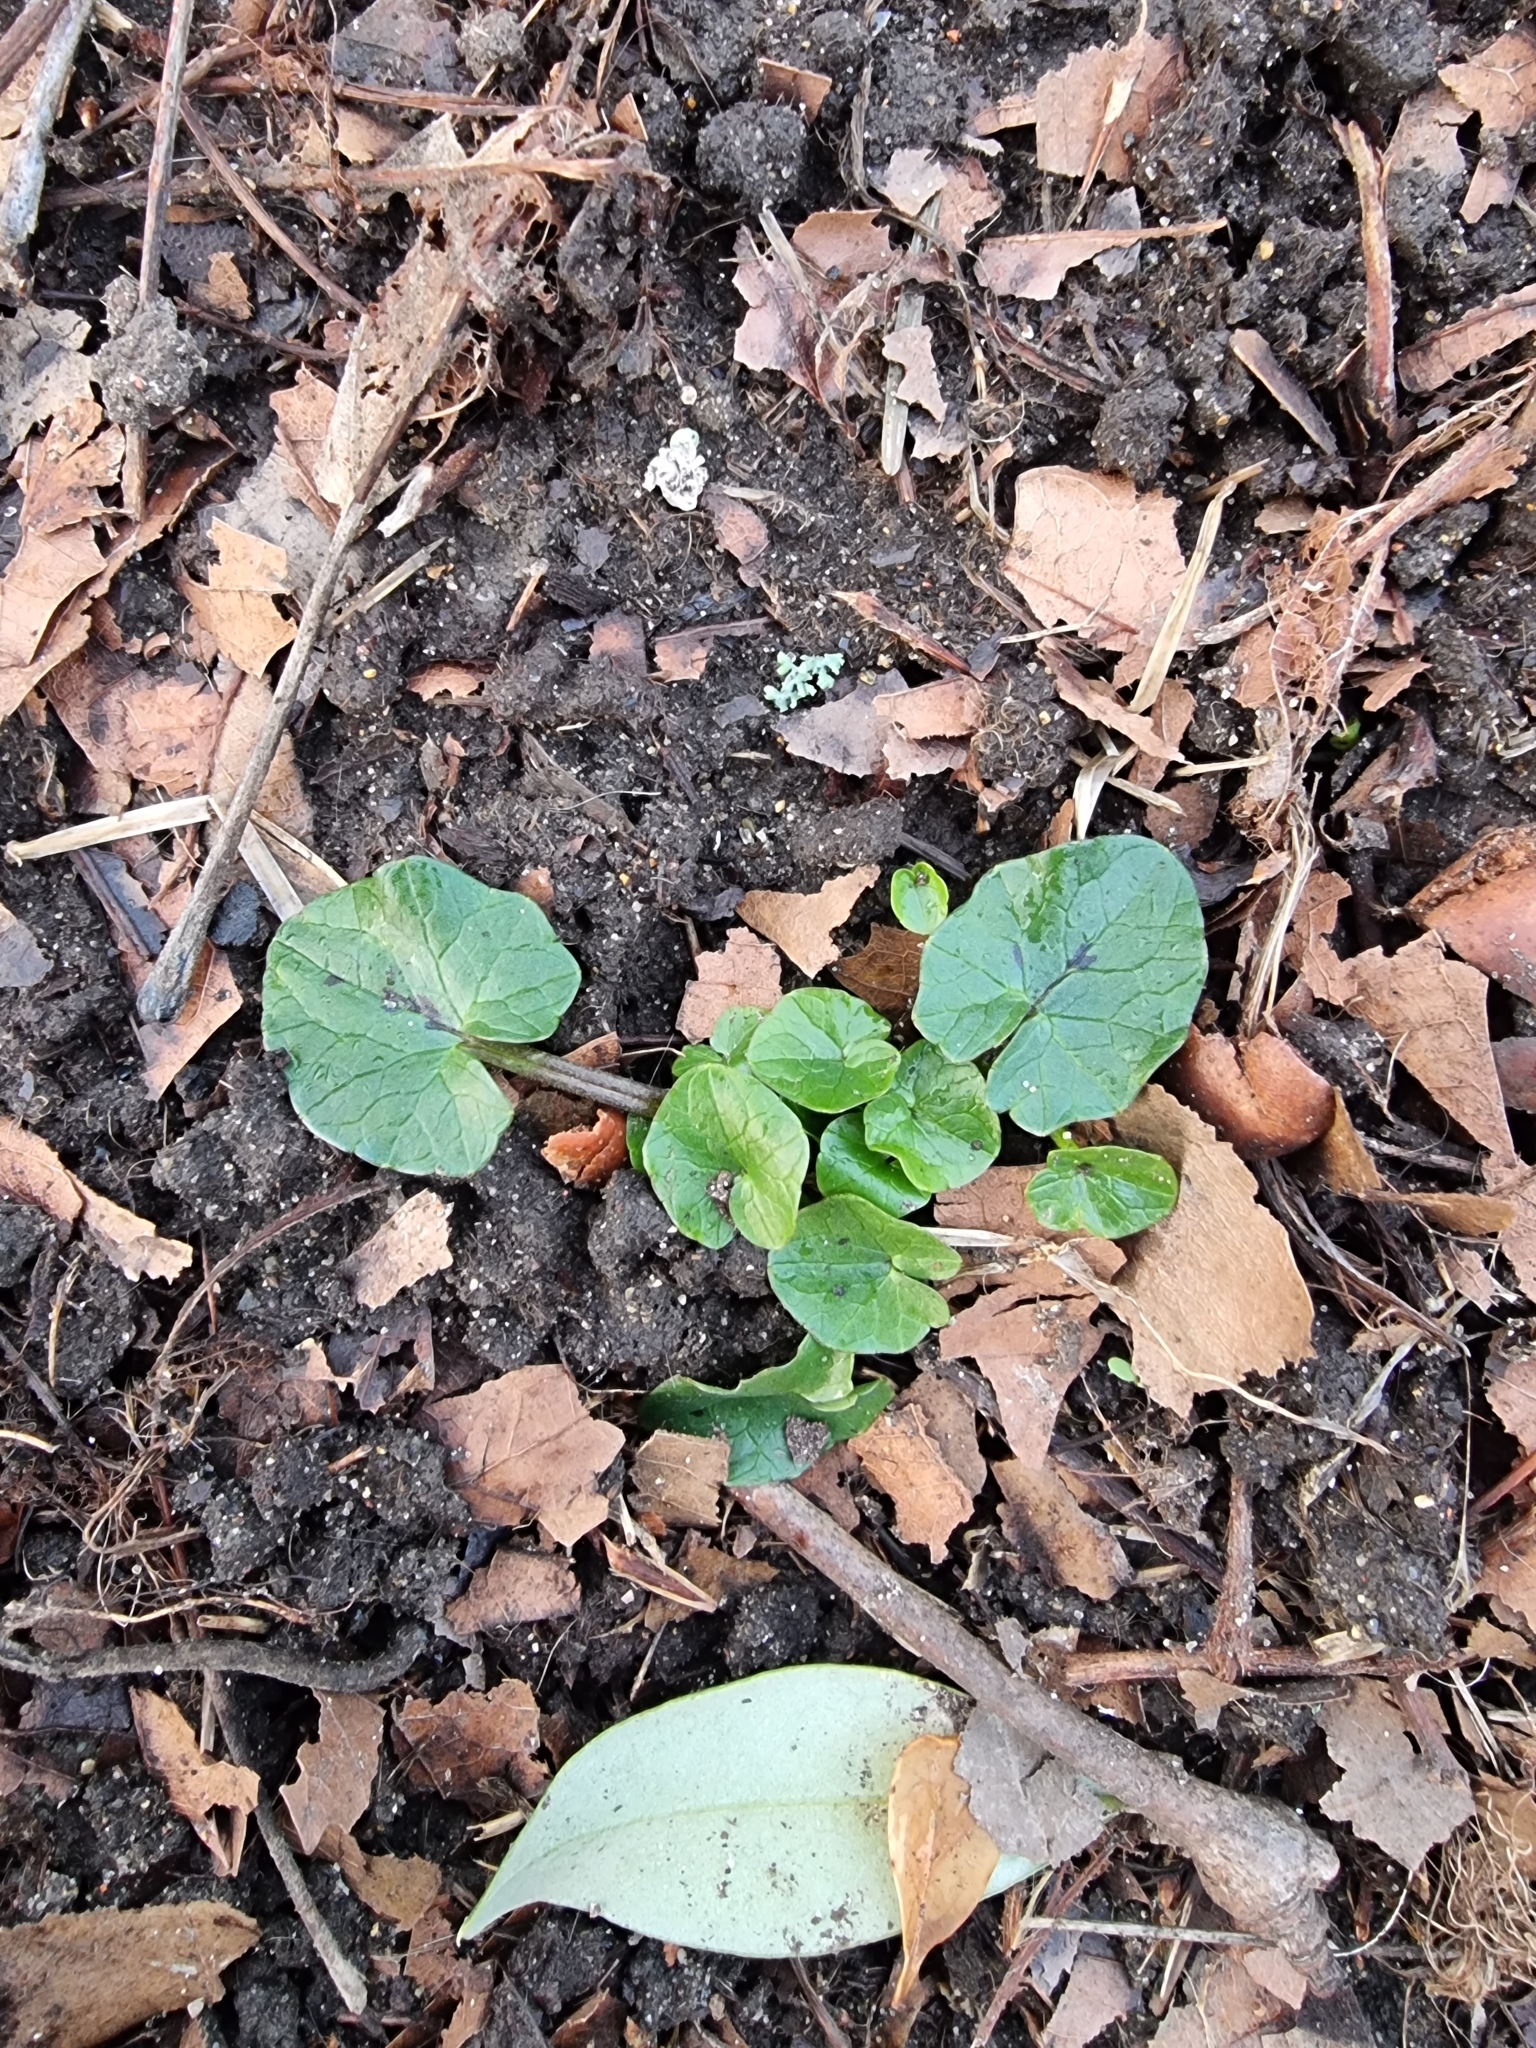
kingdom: Plantae
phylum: Tracheophyta
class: Magnoliopsida
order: Ranunculales
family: Ranunculaceae
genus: Ficaria
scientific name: Ficaria verna
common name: Lesser celandine
